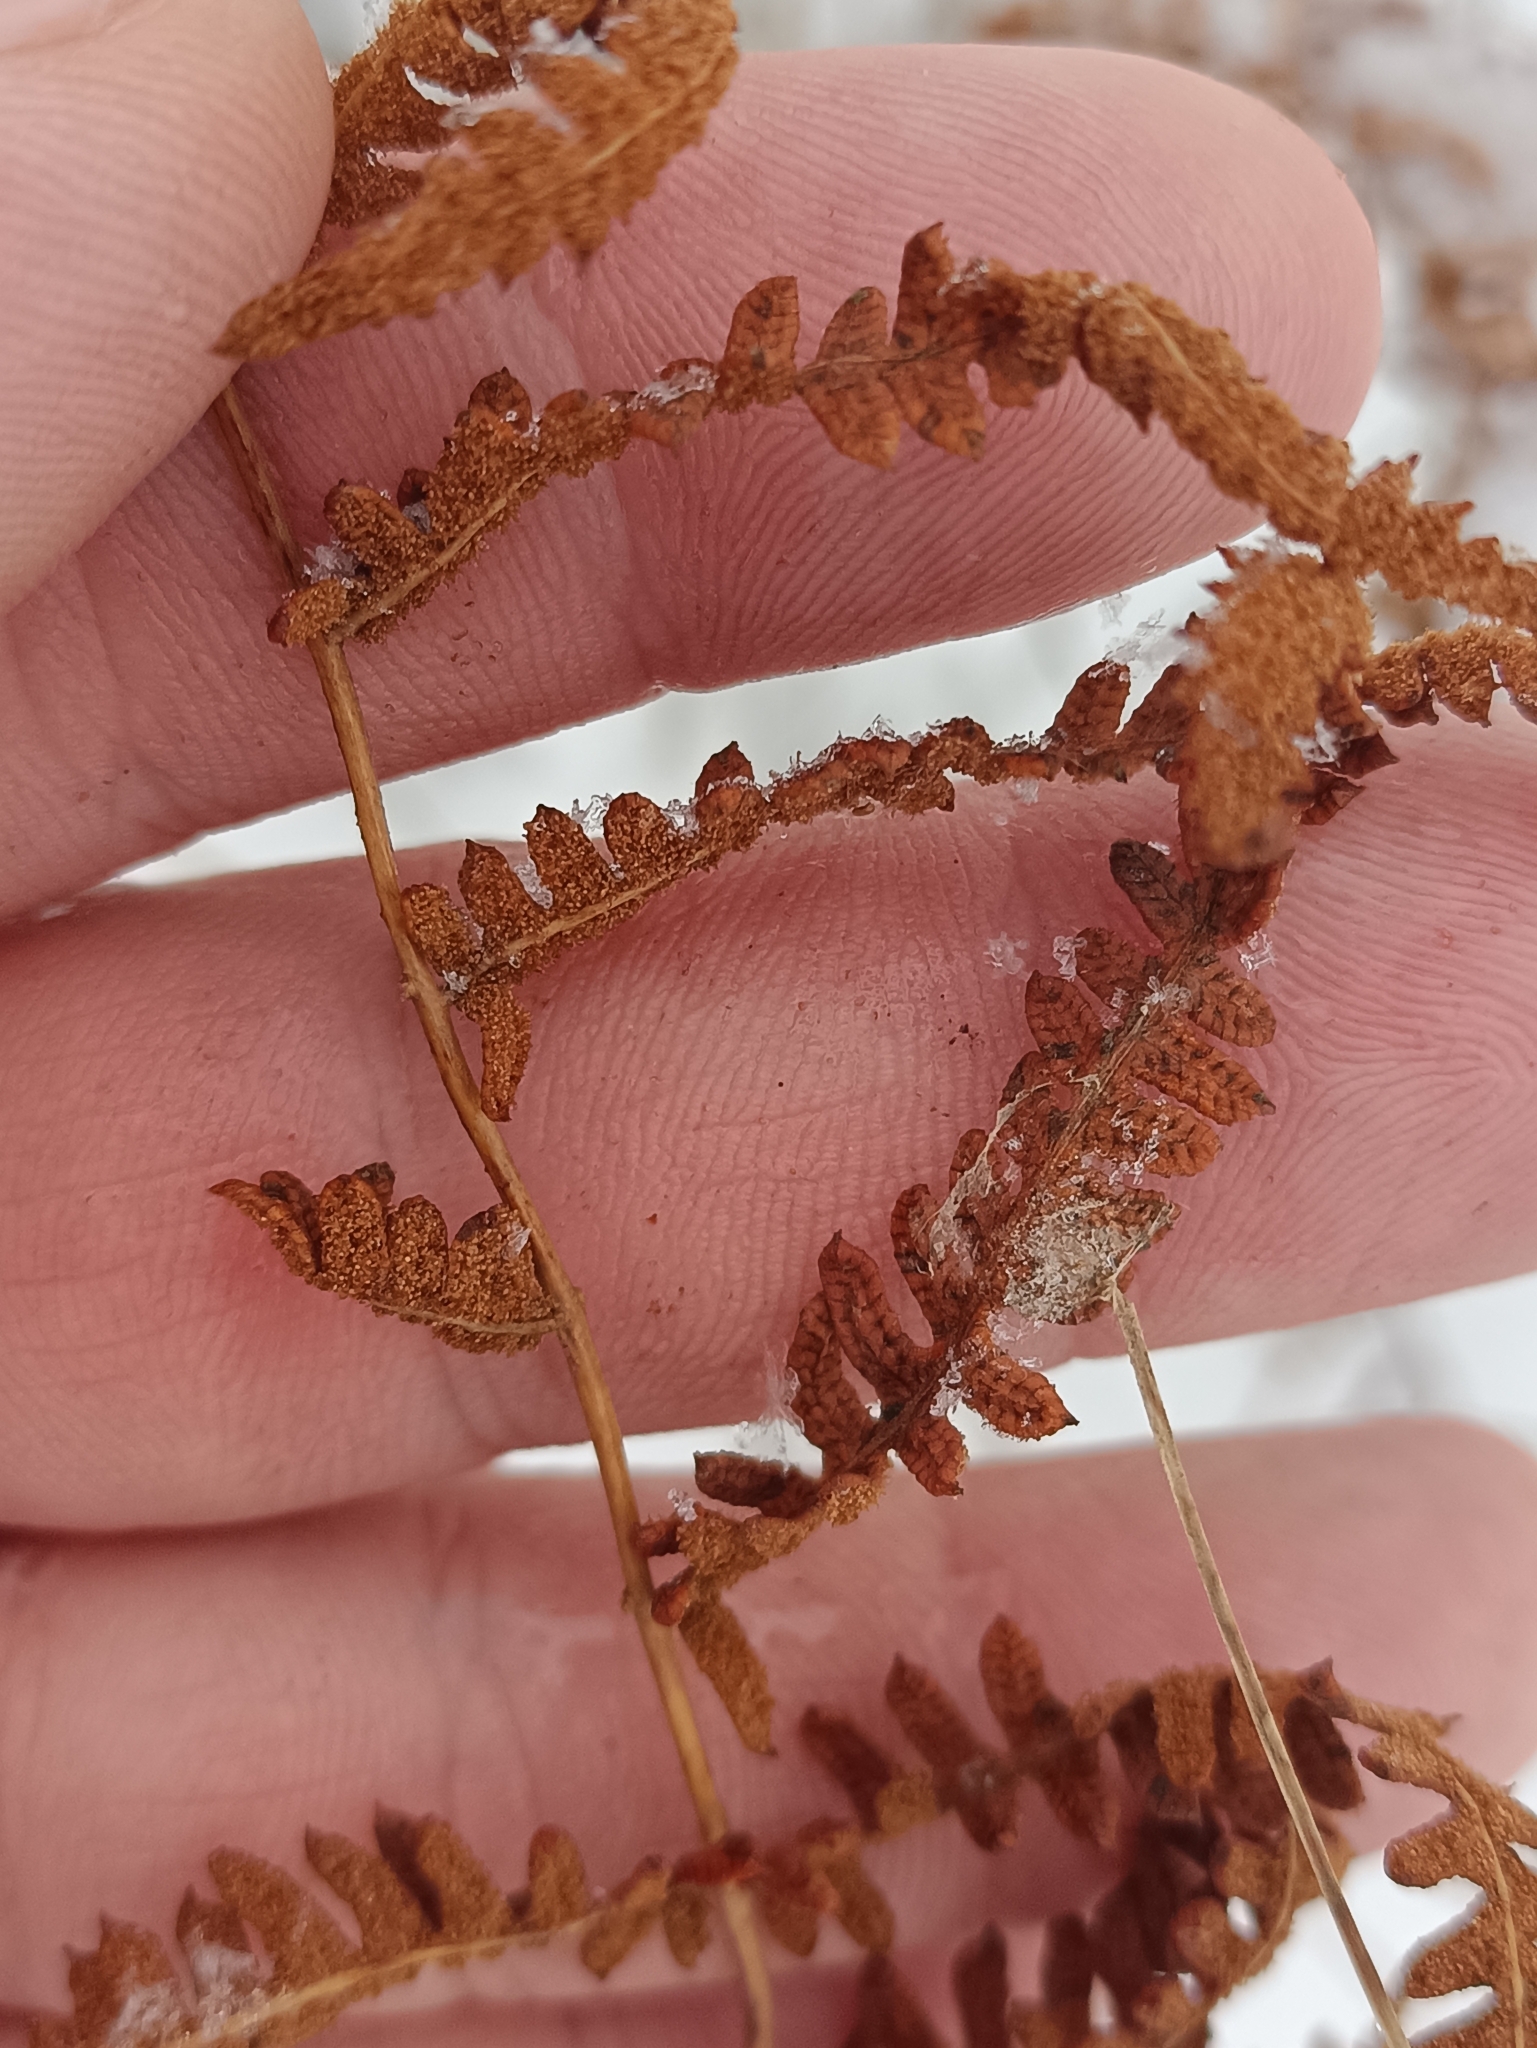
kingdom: Plantae
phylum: Tracheophyta
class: Polypodiopsida
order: Polypodiales
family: Thelypteridaceae
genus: Thelypteris
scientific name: Thelypteris palustris
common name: Marsh fern
